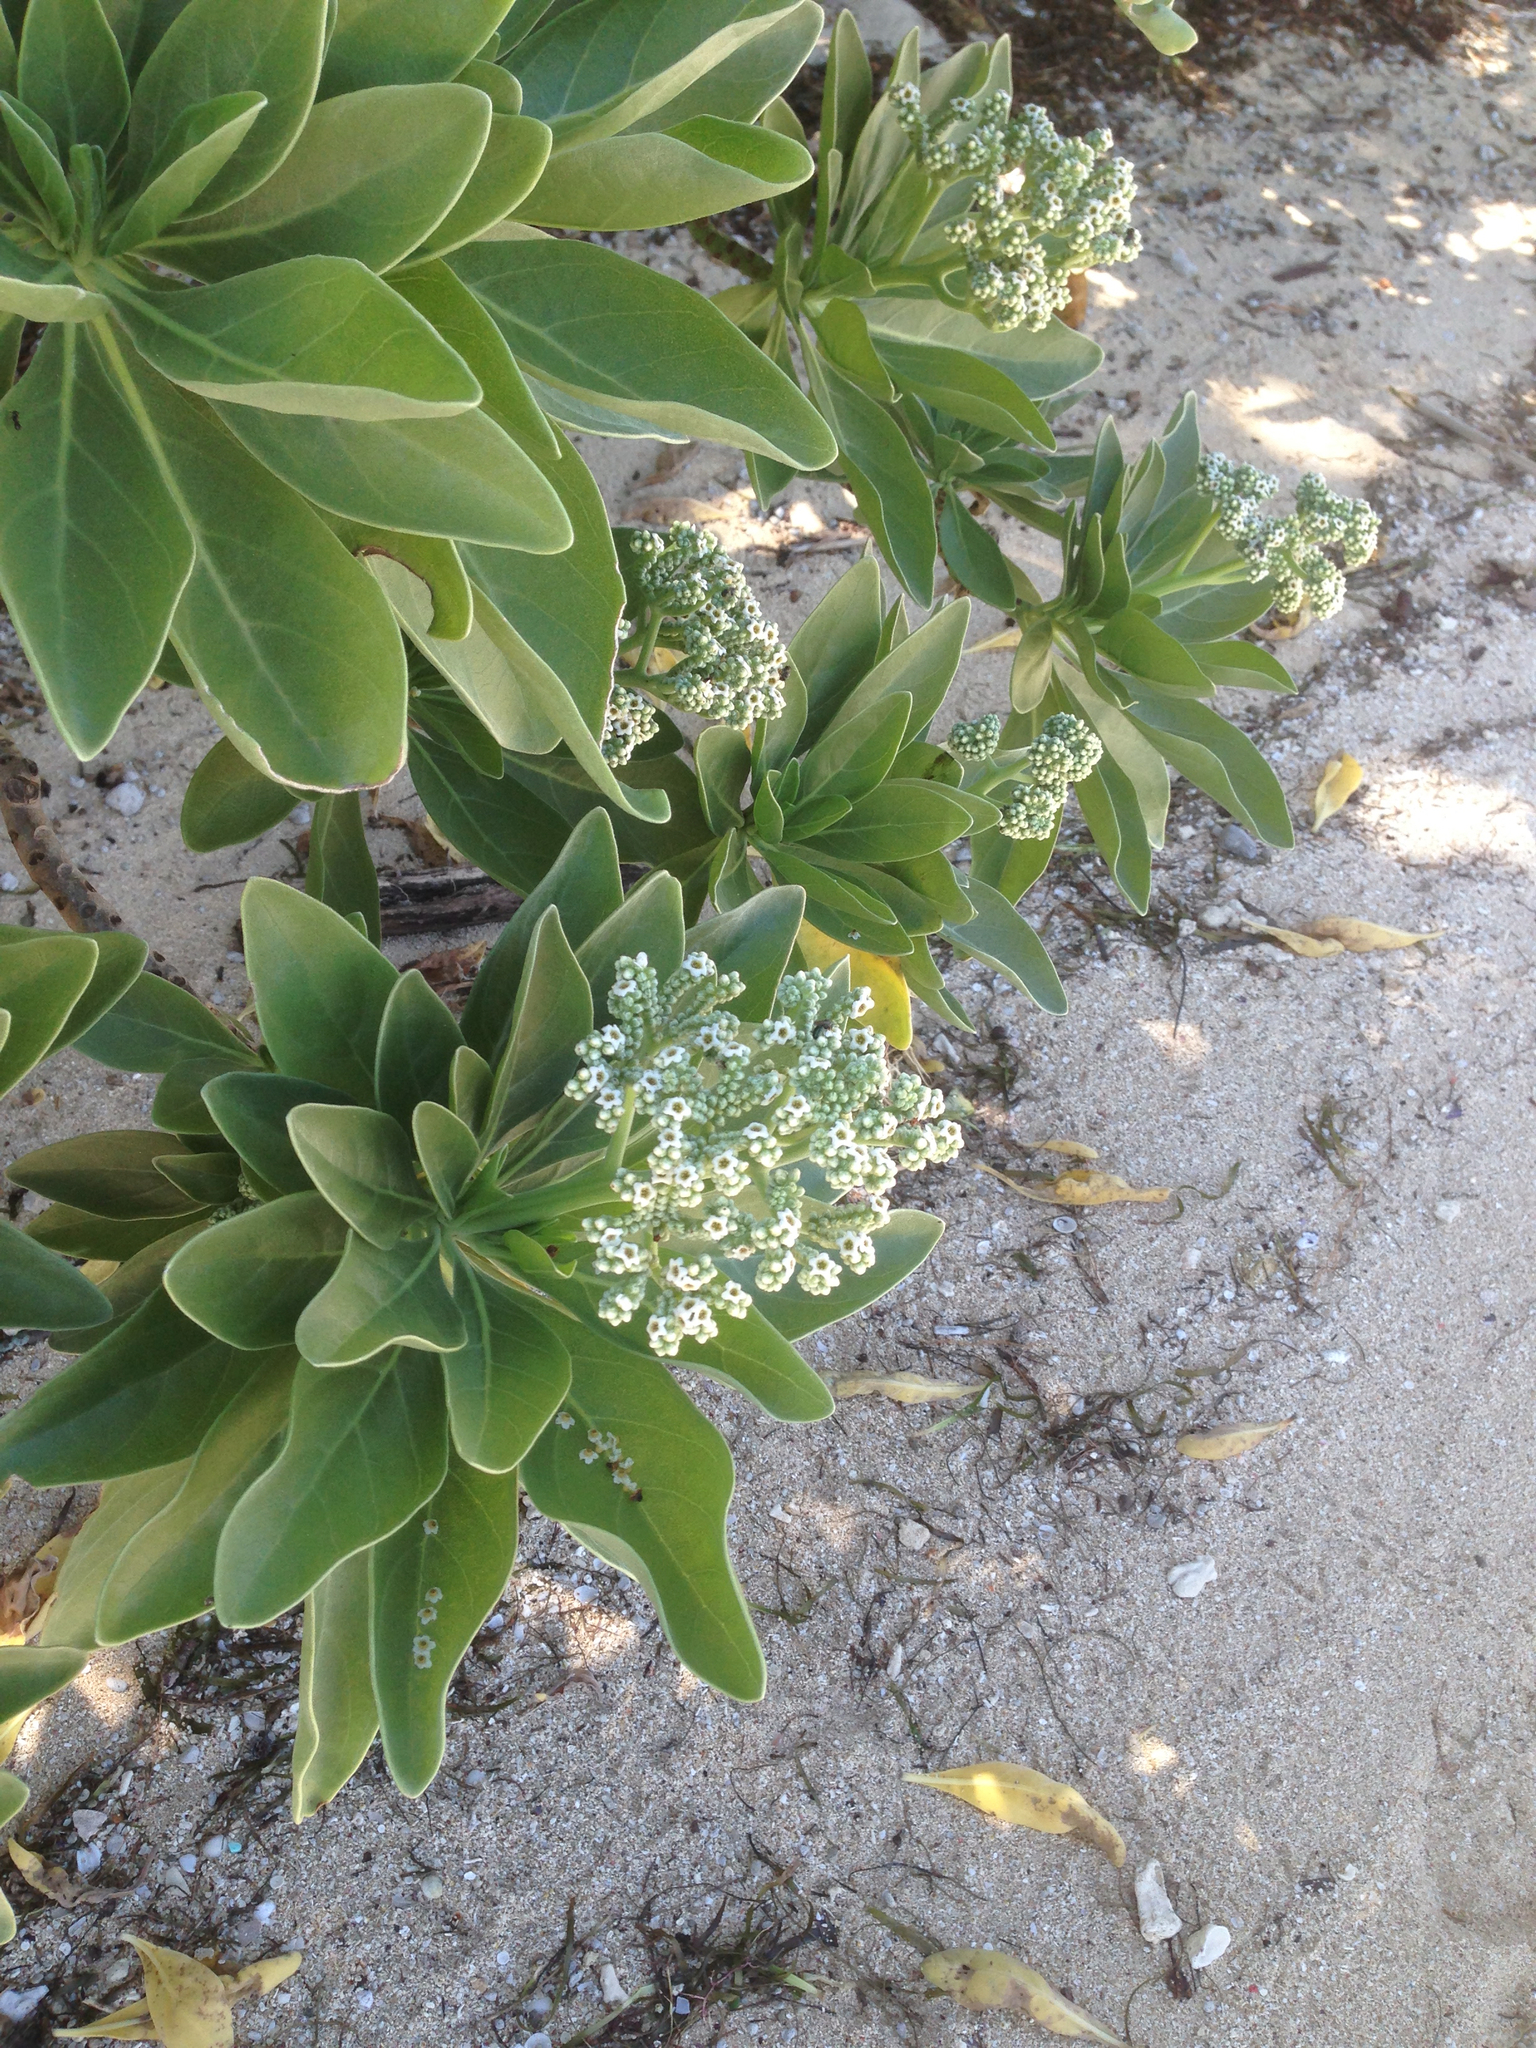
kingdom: Plantae
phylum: Tracheophyta
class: Magnoliopsida
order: Boraginales
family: Heliotropiaceae
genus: Heliotropium
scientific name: Heliotropium velutinum
